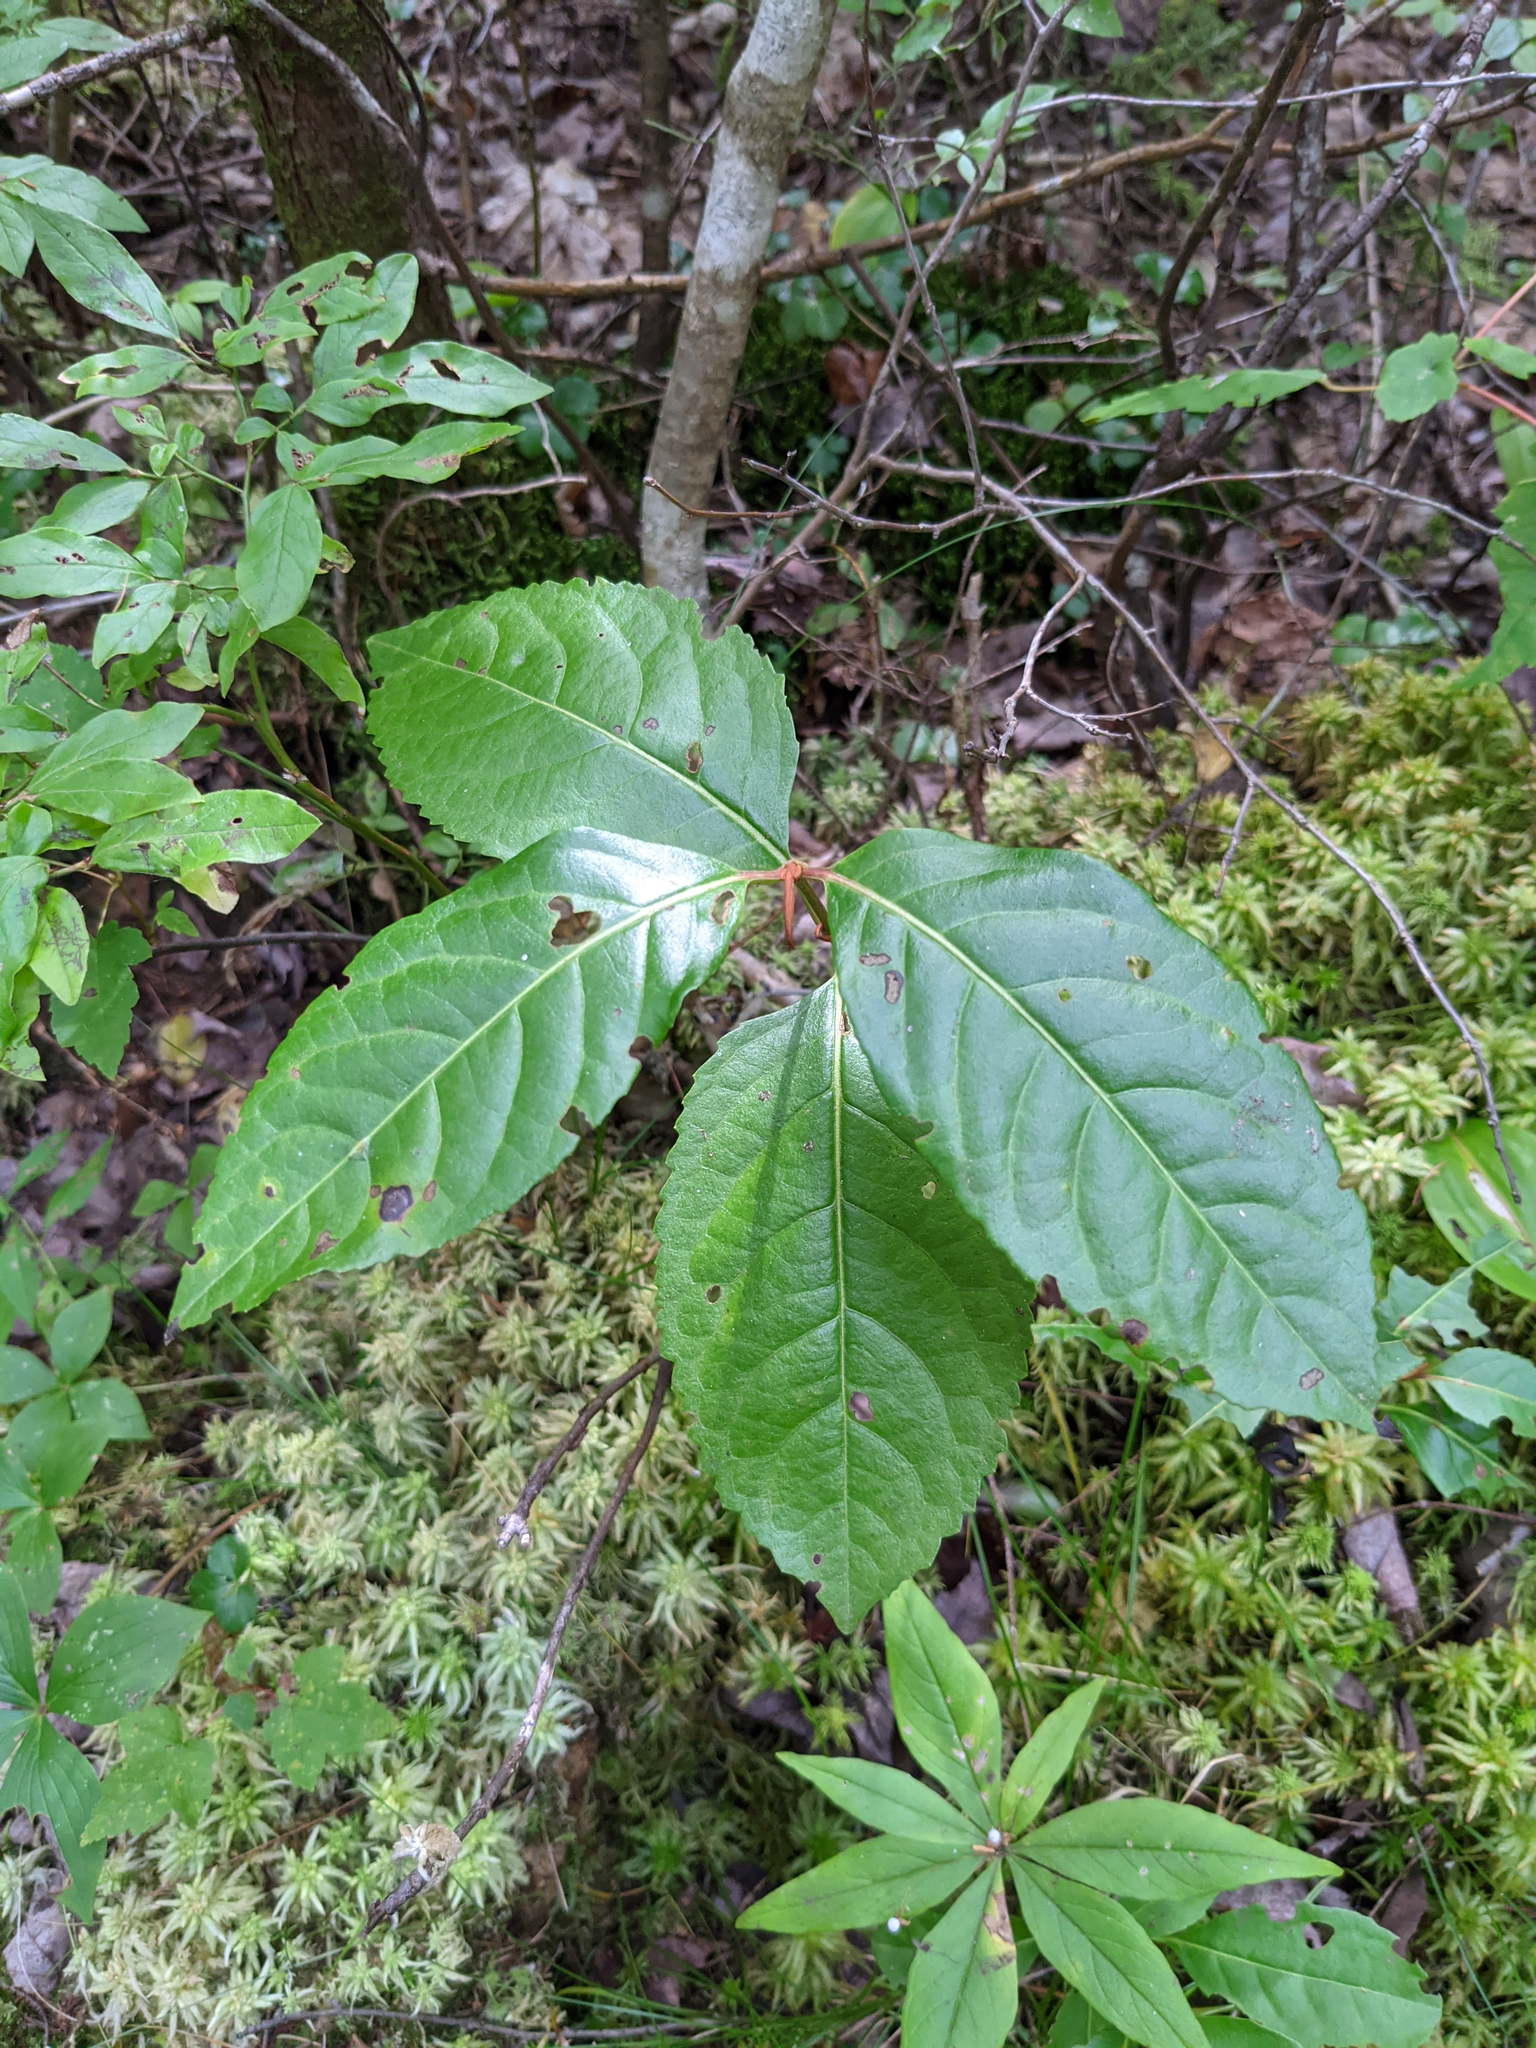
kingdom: Plantae
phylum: Tracheophyta
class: Magnoliopsida
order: Dipsacales
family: Viburnaceae
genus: Viburnum
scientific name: Viburnum cassinoides
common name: Swamp haw
